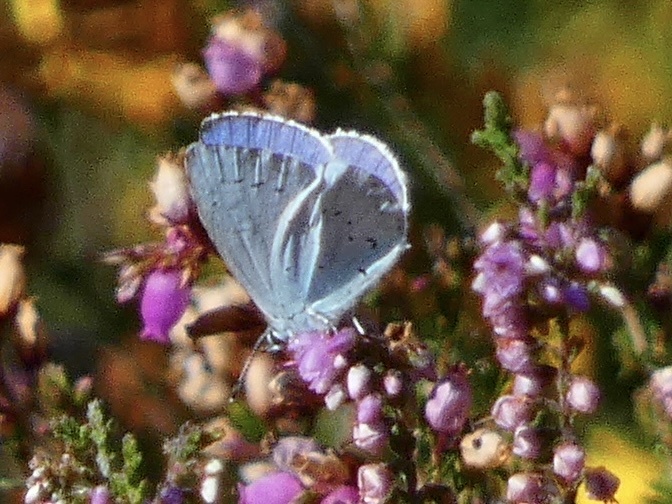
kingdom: Animalia
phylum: Arthropoda
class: Insecta
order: Lepidoptera
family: Lycaenidae
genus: Celastrina
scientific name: Celastrina argiolus
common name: Holly blue
